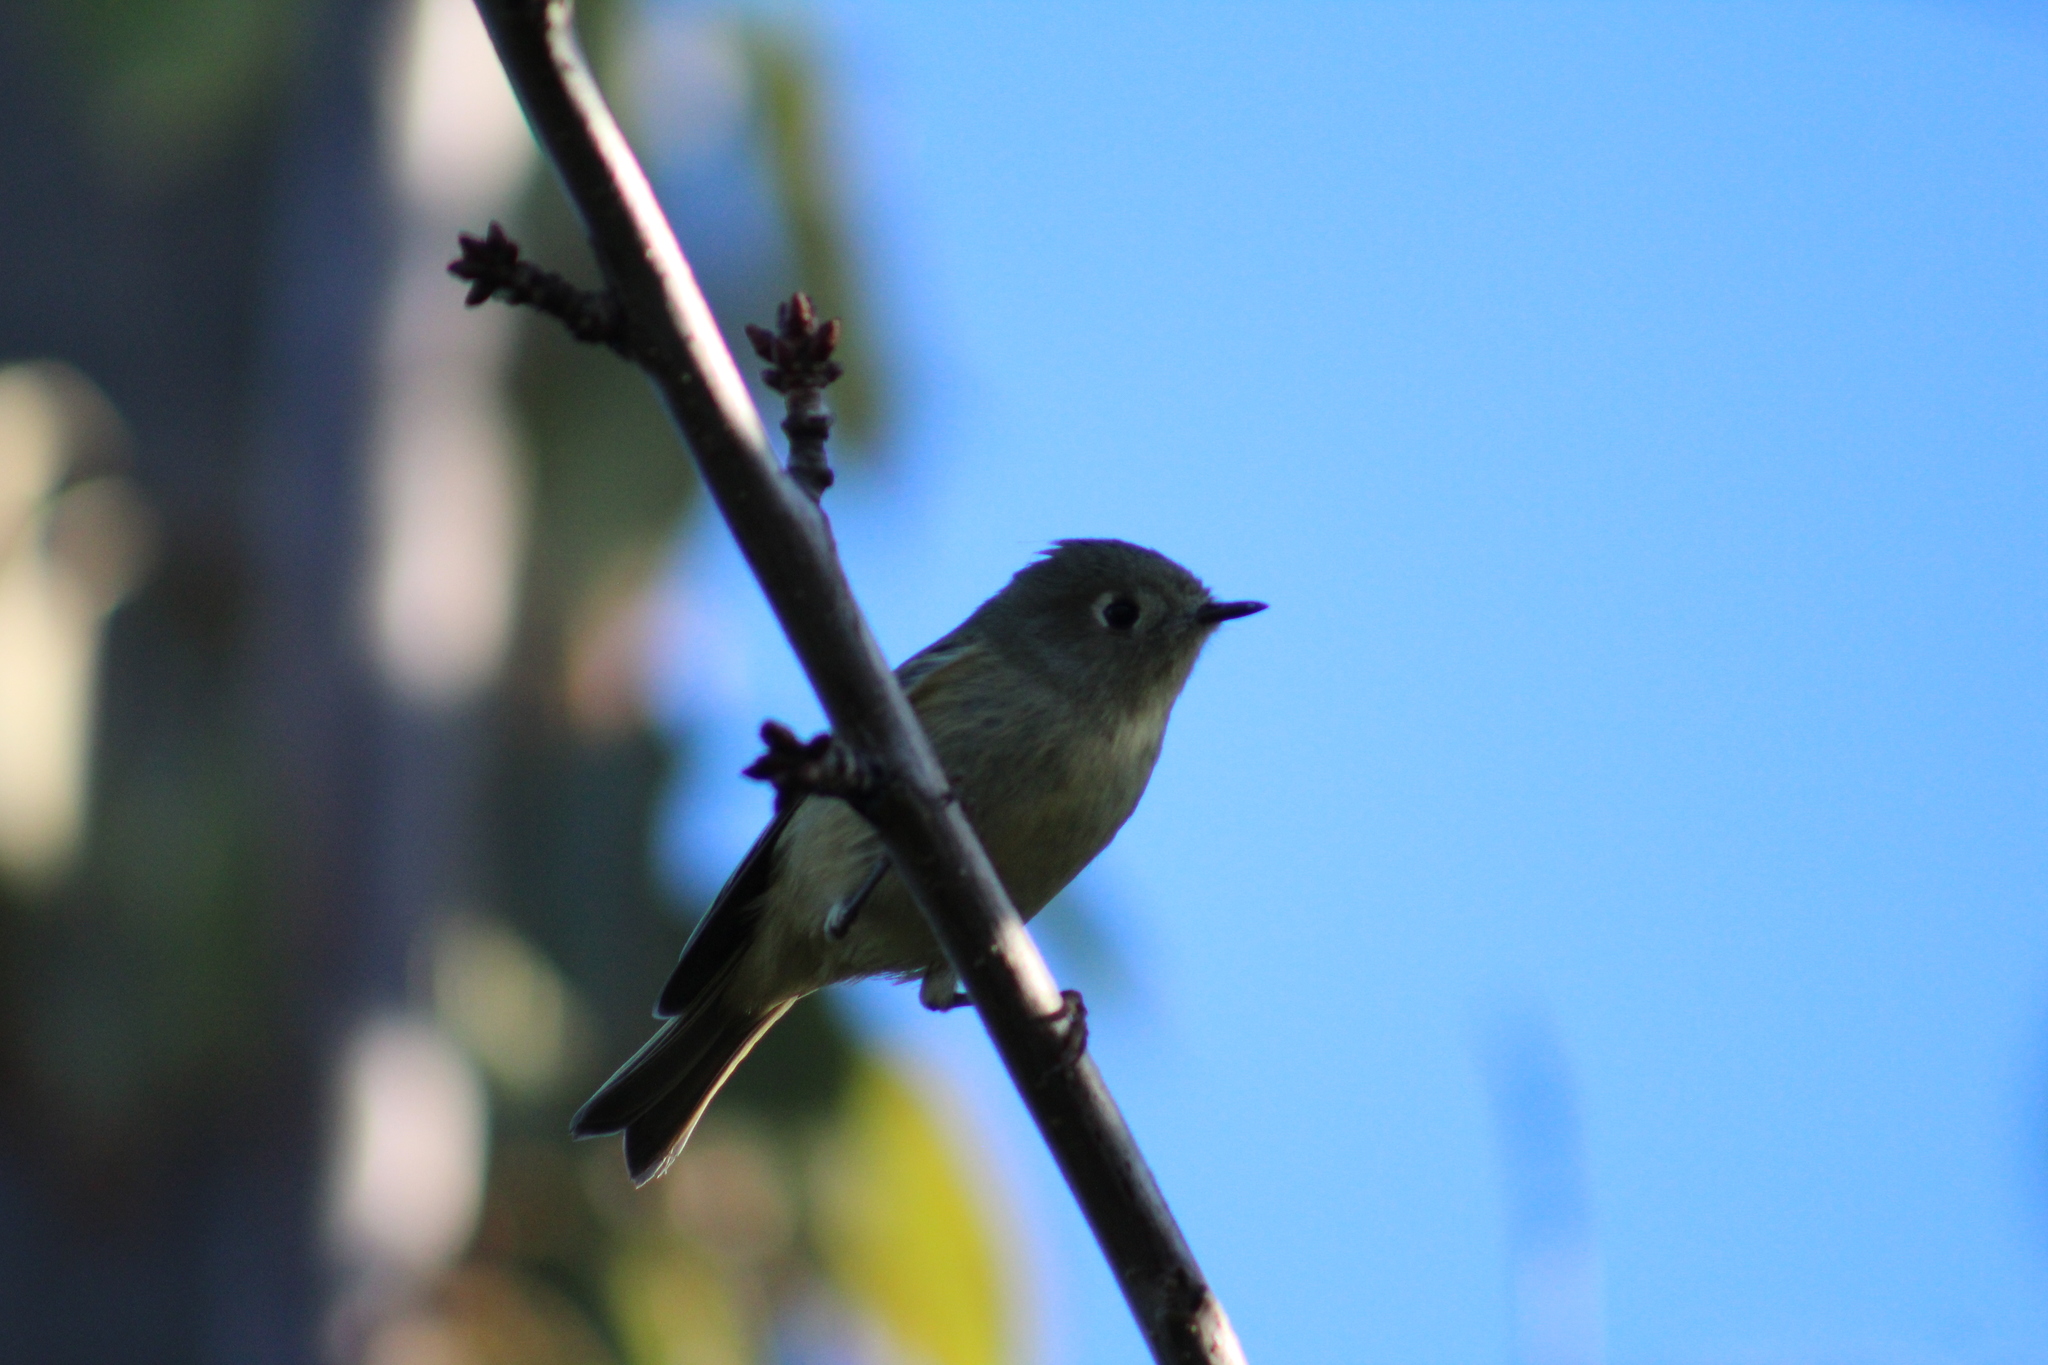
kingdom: Animalia
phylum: Chordata
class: Aves
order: Passeriformes
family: Regulidae
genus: Regulus
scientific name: Regulus calendula
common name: Ruby-crowned kinglet
